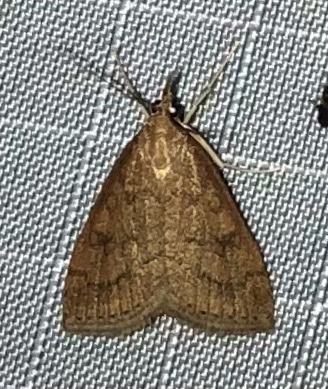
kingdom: Animalia
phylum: Arthropoda
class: Insecta
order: Lepidoptera
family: Crambidae
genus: Udea
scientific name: Udea rubigalis
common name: Celery leaftier moth
